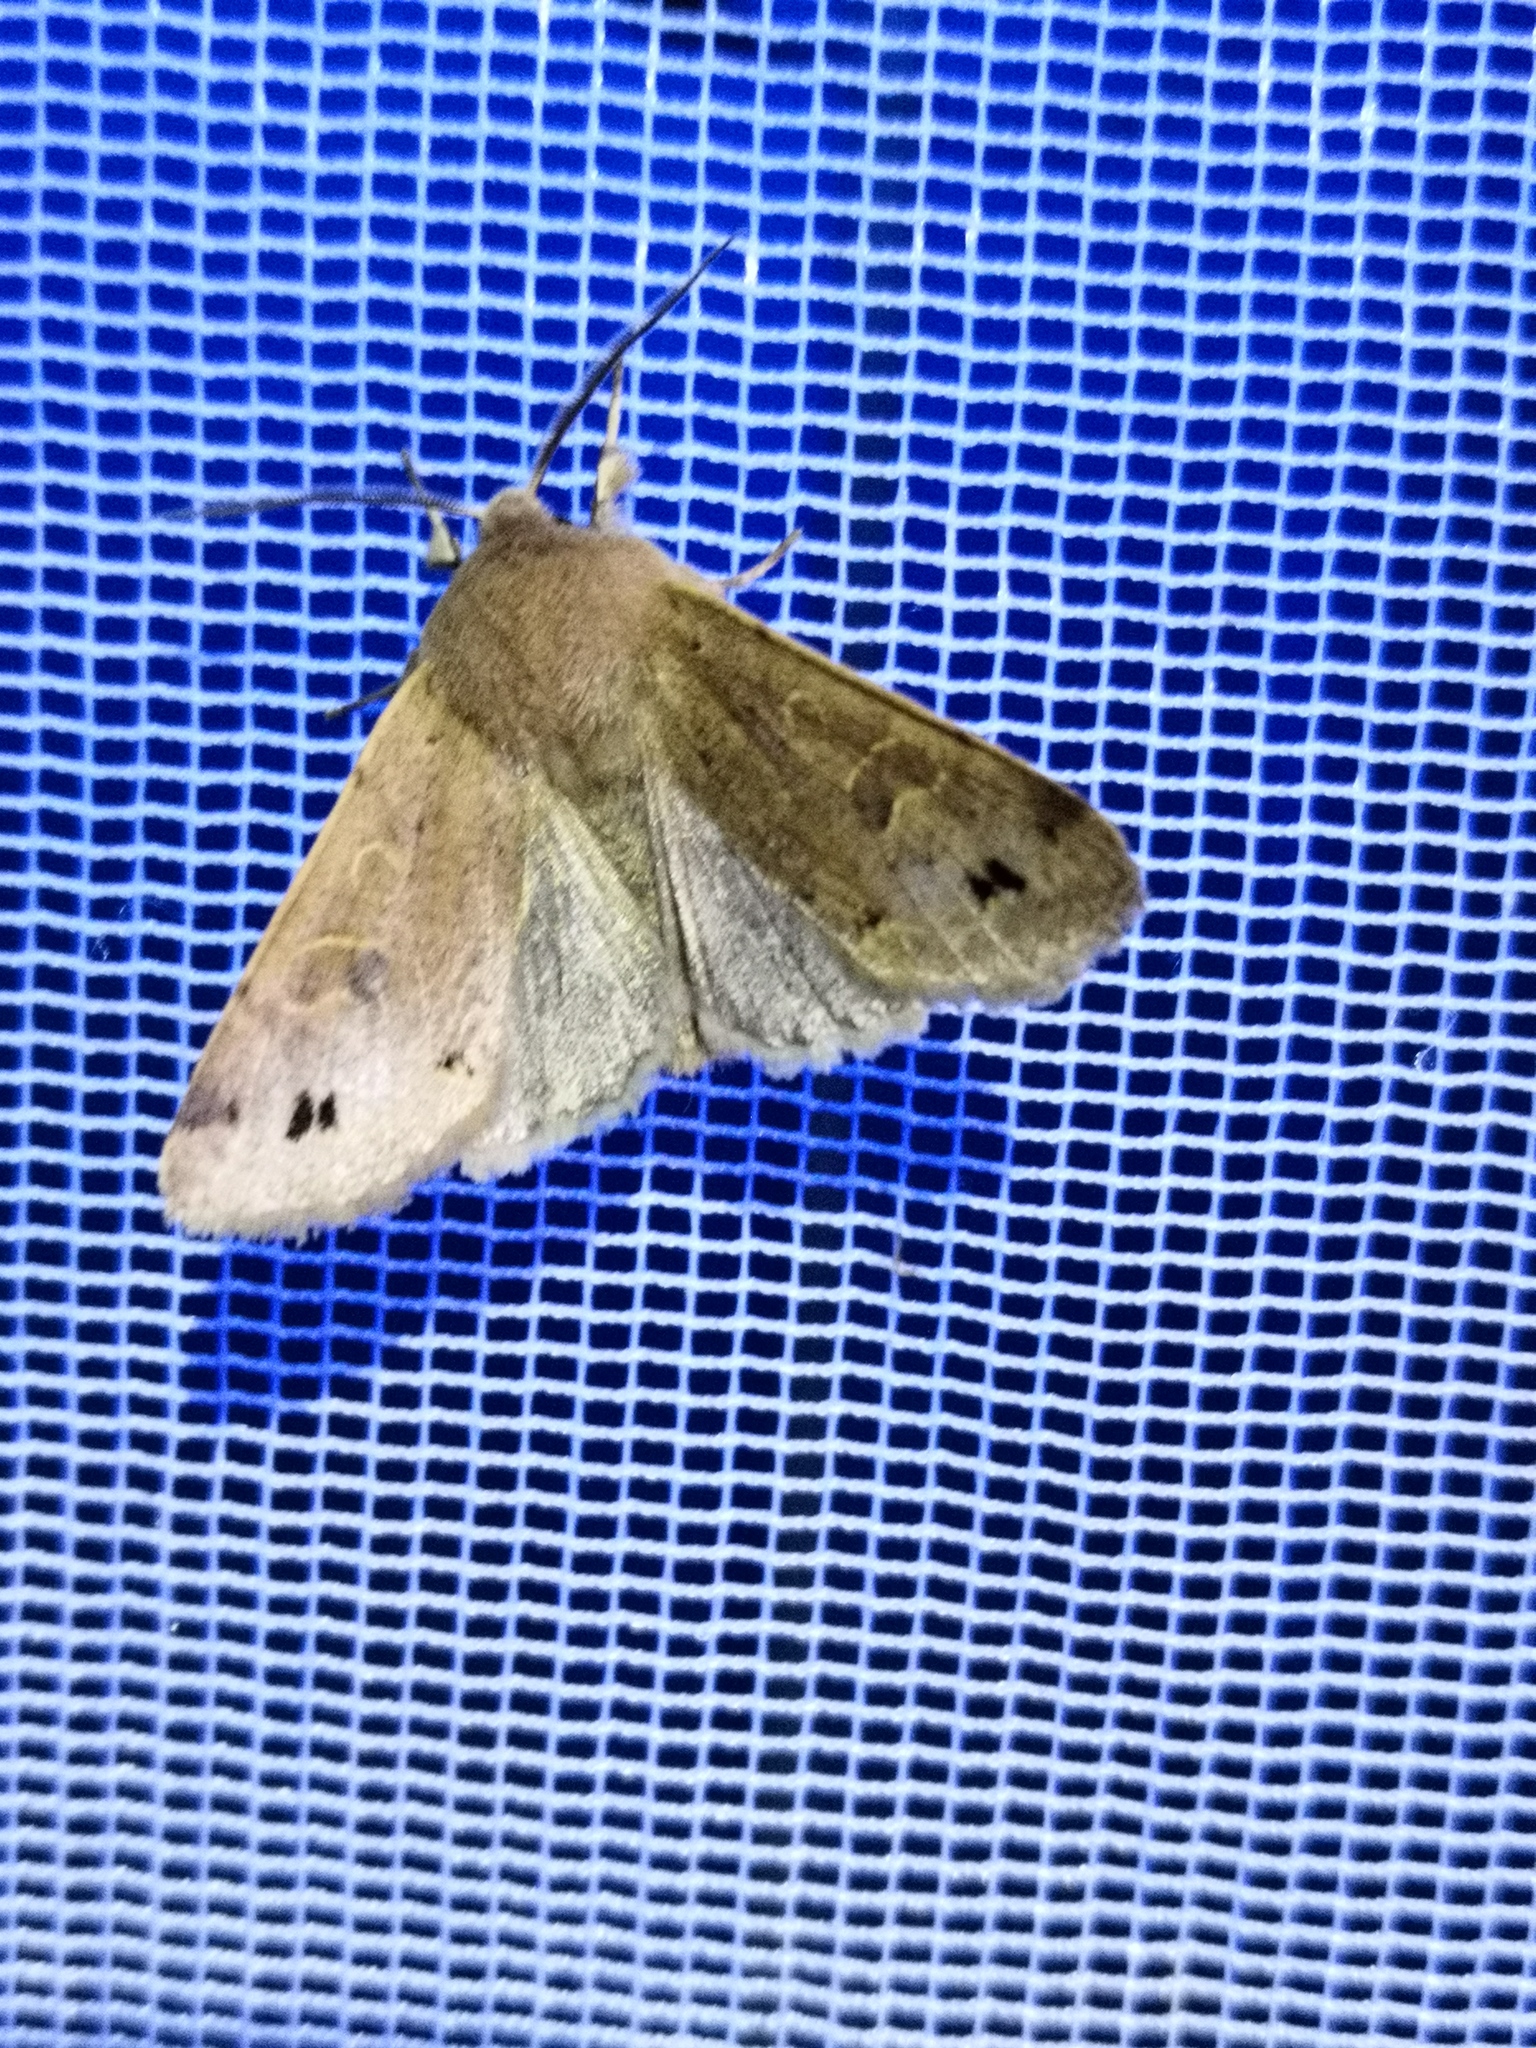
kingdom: Animalia
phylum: Arthropoda
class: Insecta
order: Lepidoptera
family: Noctuidae
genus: Anorthoa
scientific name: Anorthoa munda
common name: Twin-spotted quaker
